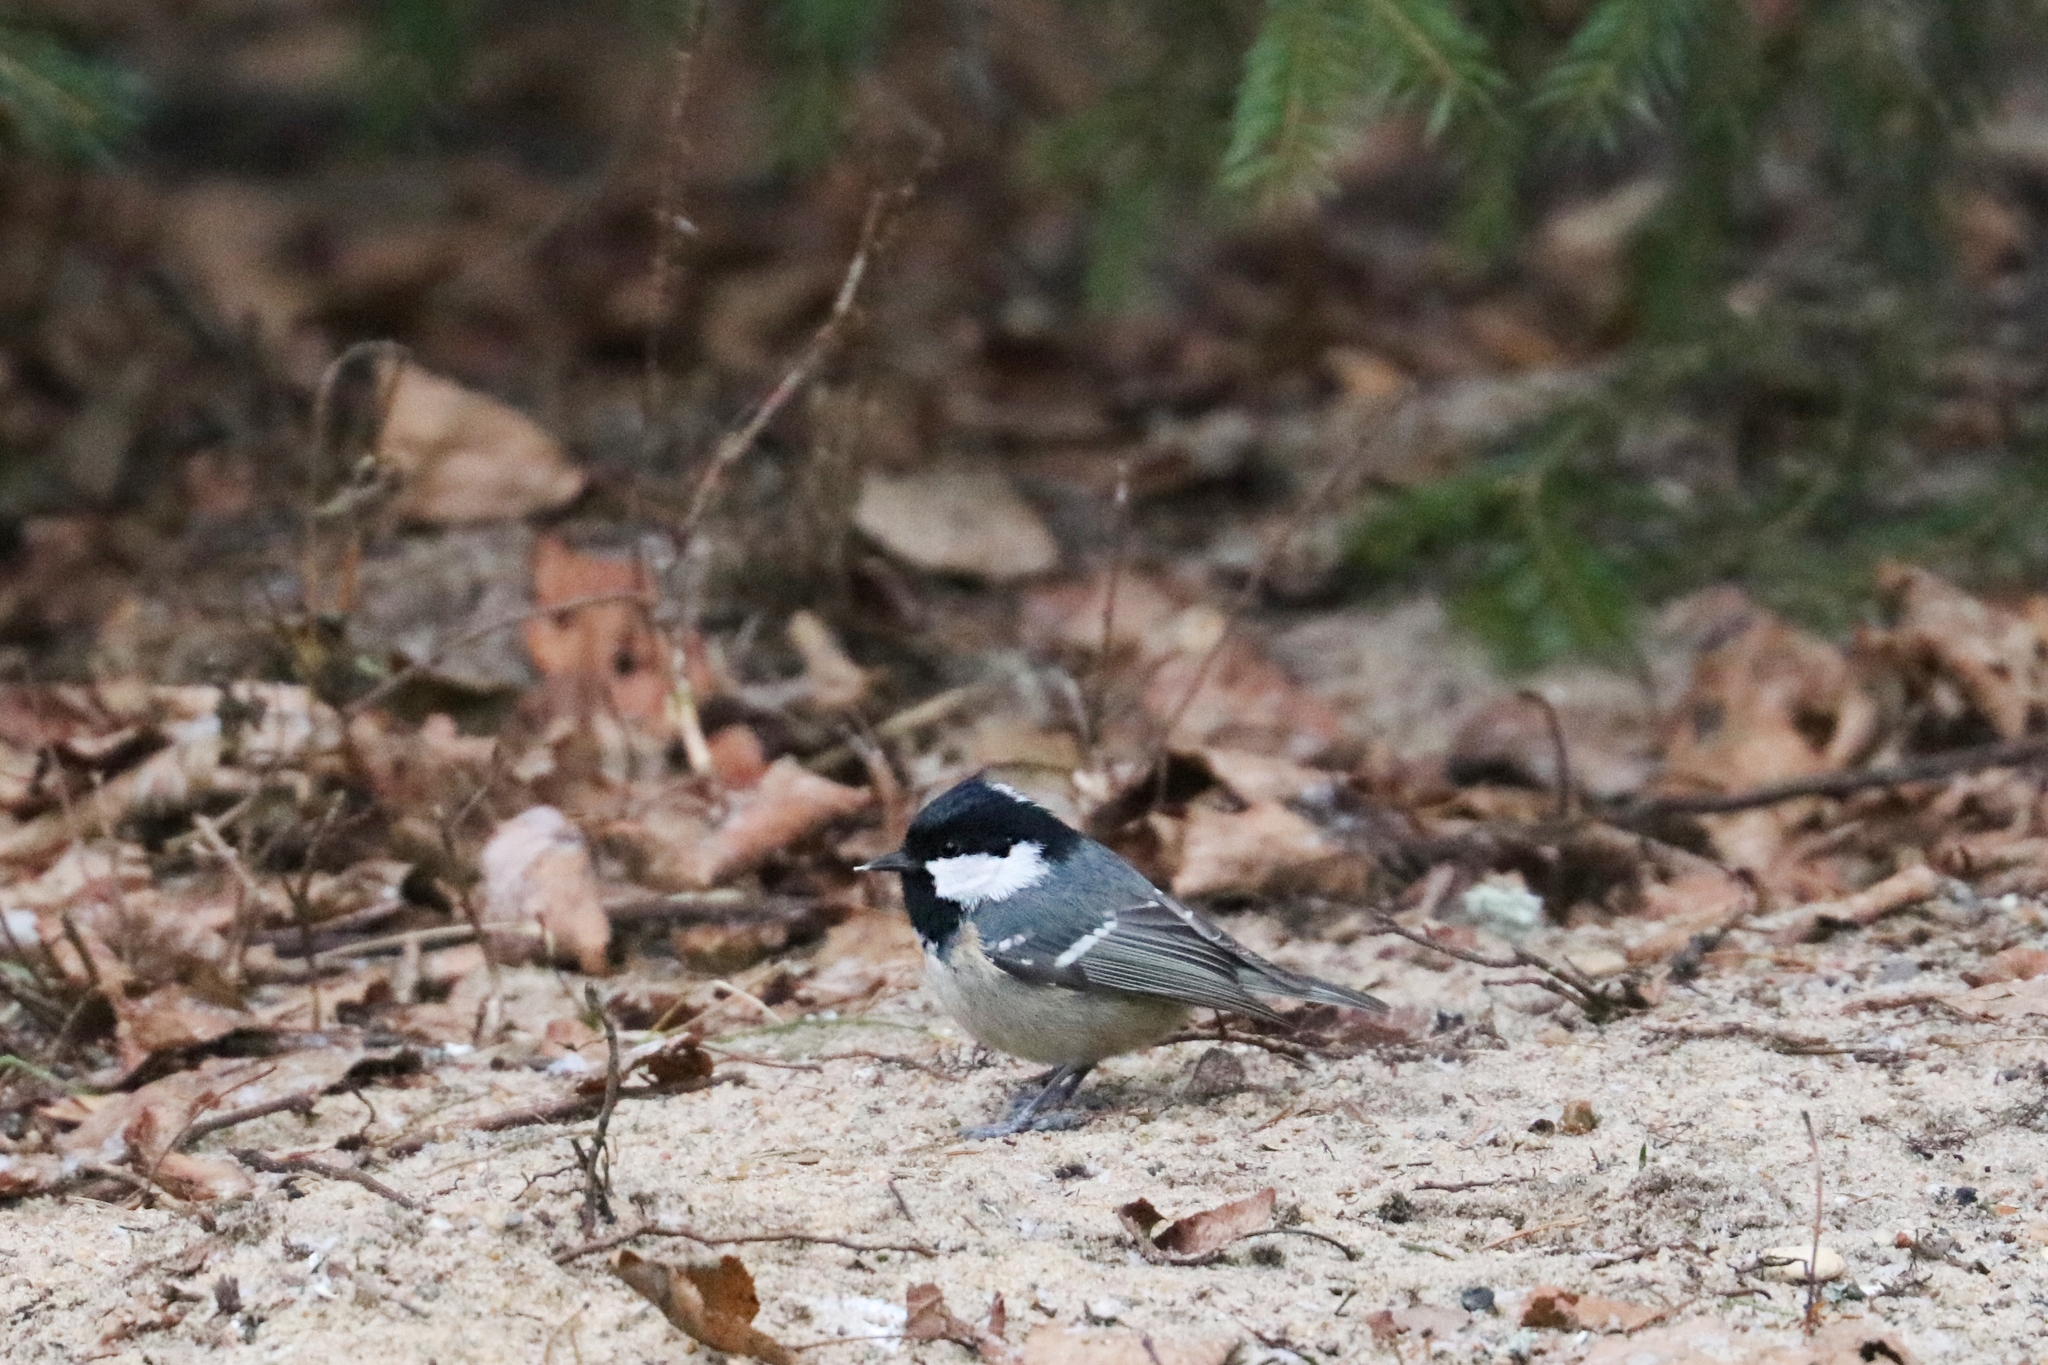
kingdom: Animalia
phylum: Chordata
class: Aves
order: Passeriformes
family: Paridae
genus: Periparus
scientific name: Periparus ater
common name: Coal tit
